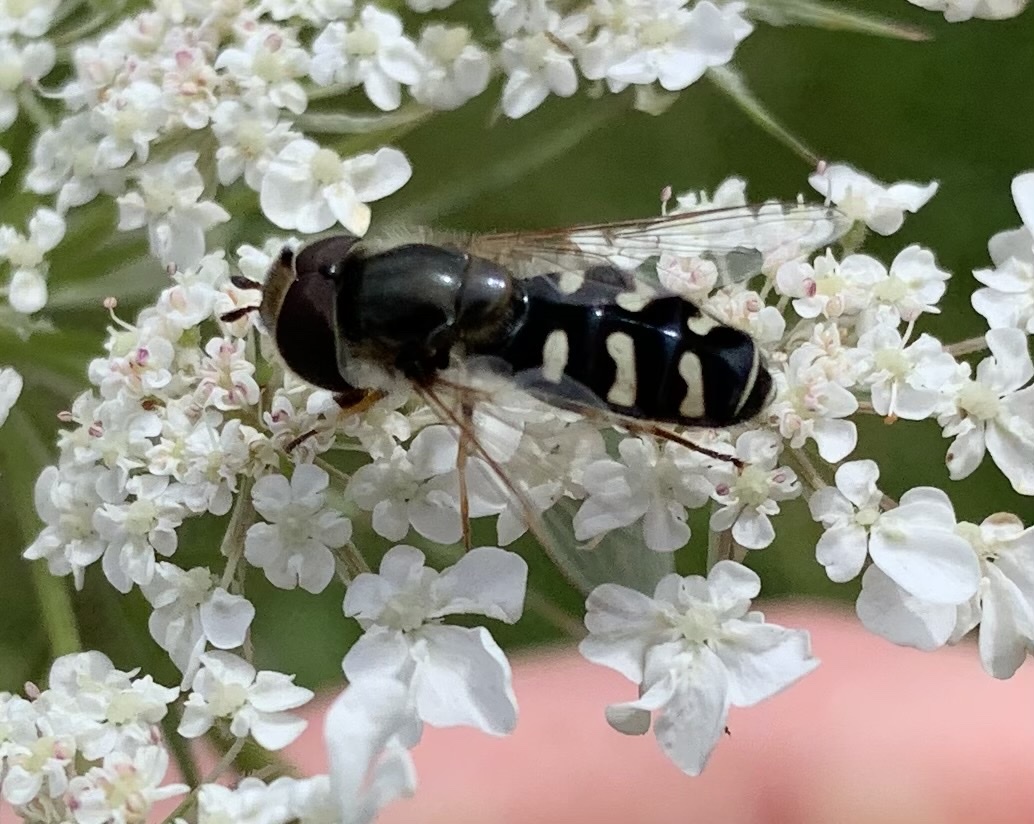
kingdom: Animalia
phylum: Arthropoda
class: Insecta
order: Diptera
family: Syrphidae
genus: Scaeva
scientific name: Scaeva pyrastri
